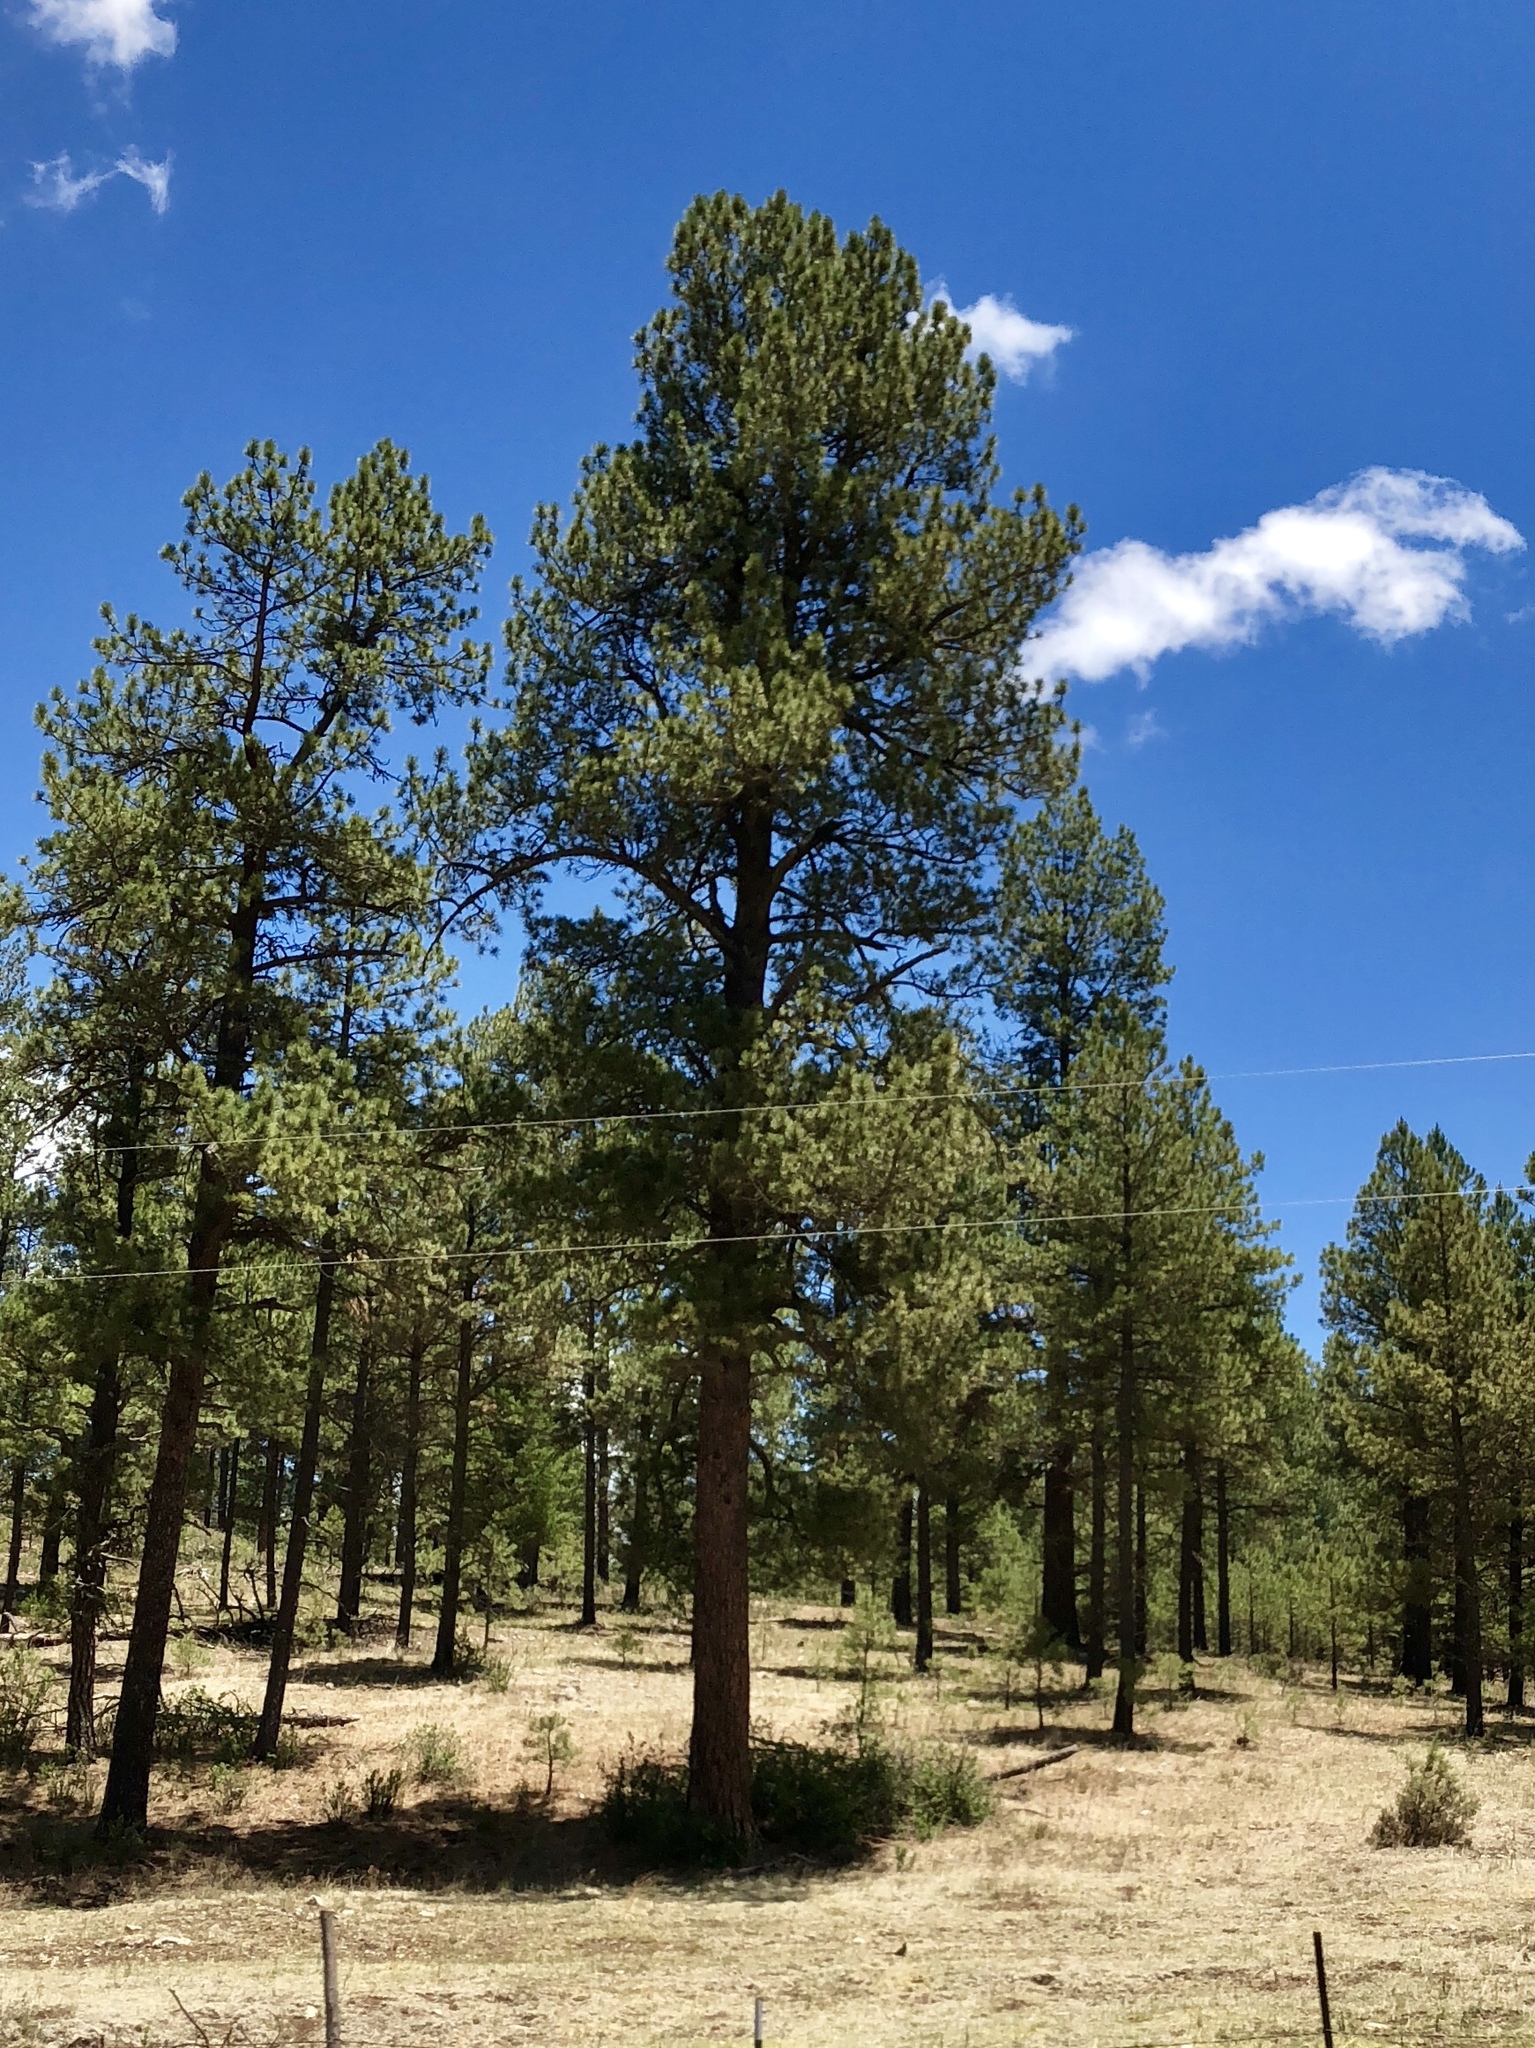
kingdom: Plantae
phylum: Tracheophyta
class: Pinopsida
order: Pinales
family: Pinaceae
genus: Pinus
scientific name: Pinus ponderosa
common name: Western yellow-pine
